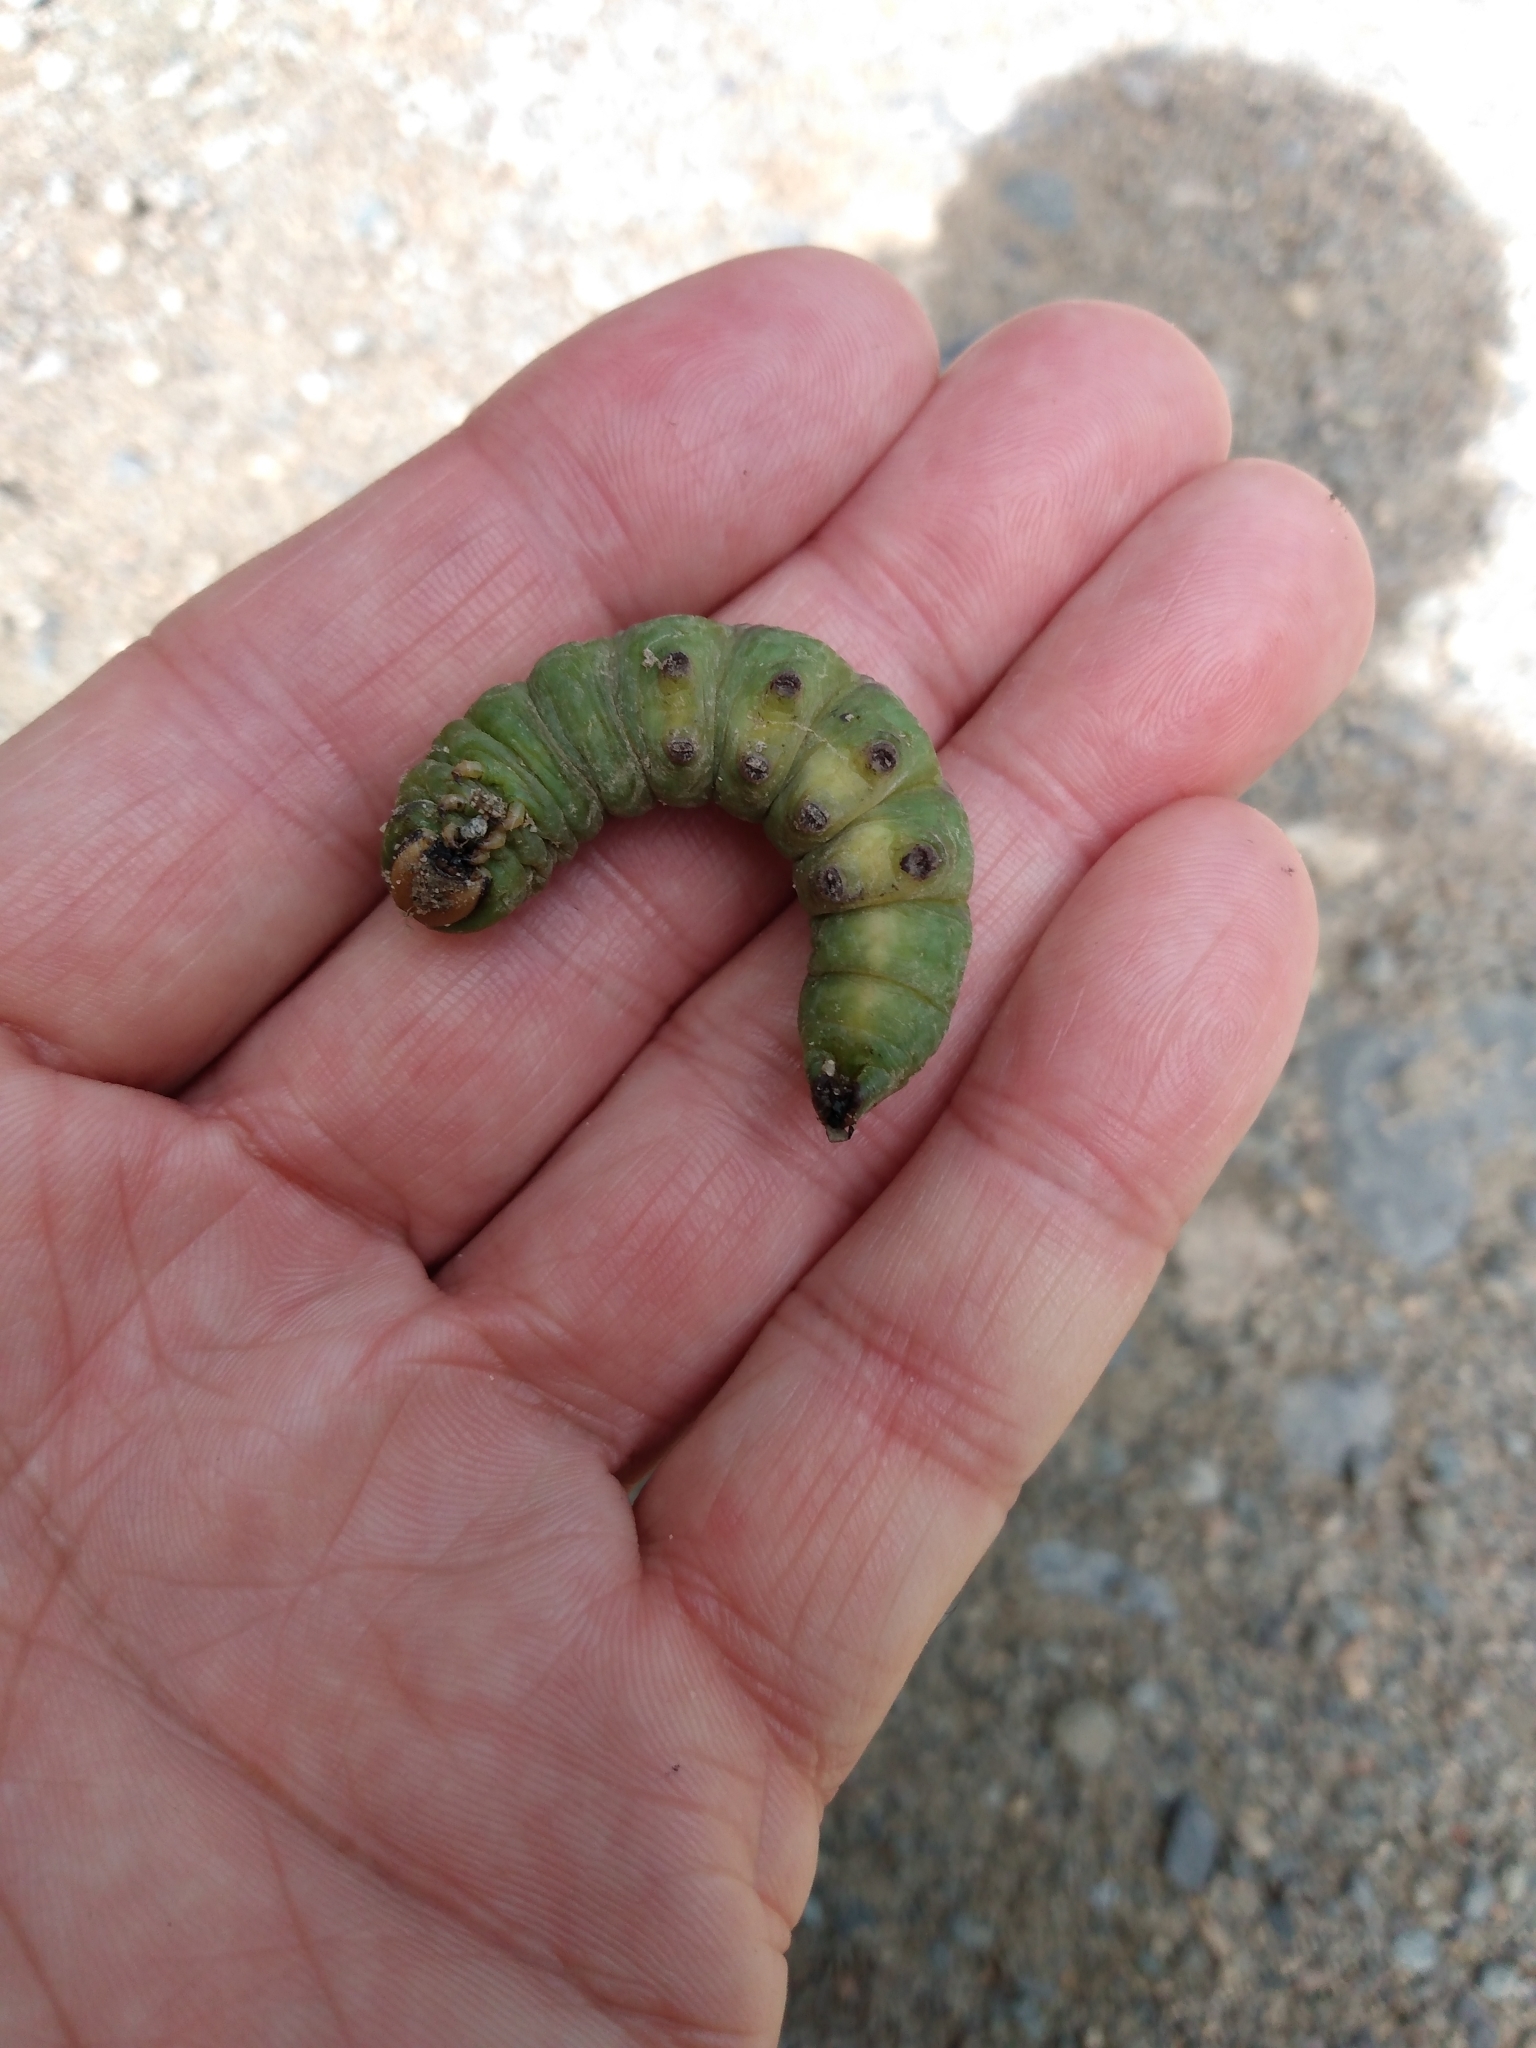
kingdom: Animalia
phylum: Arthropoda
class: Insecta
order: Lepidoptera
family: Sphingidae
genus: Sphinx
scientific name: Sphinx perelegans
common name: Elegant sphinx
